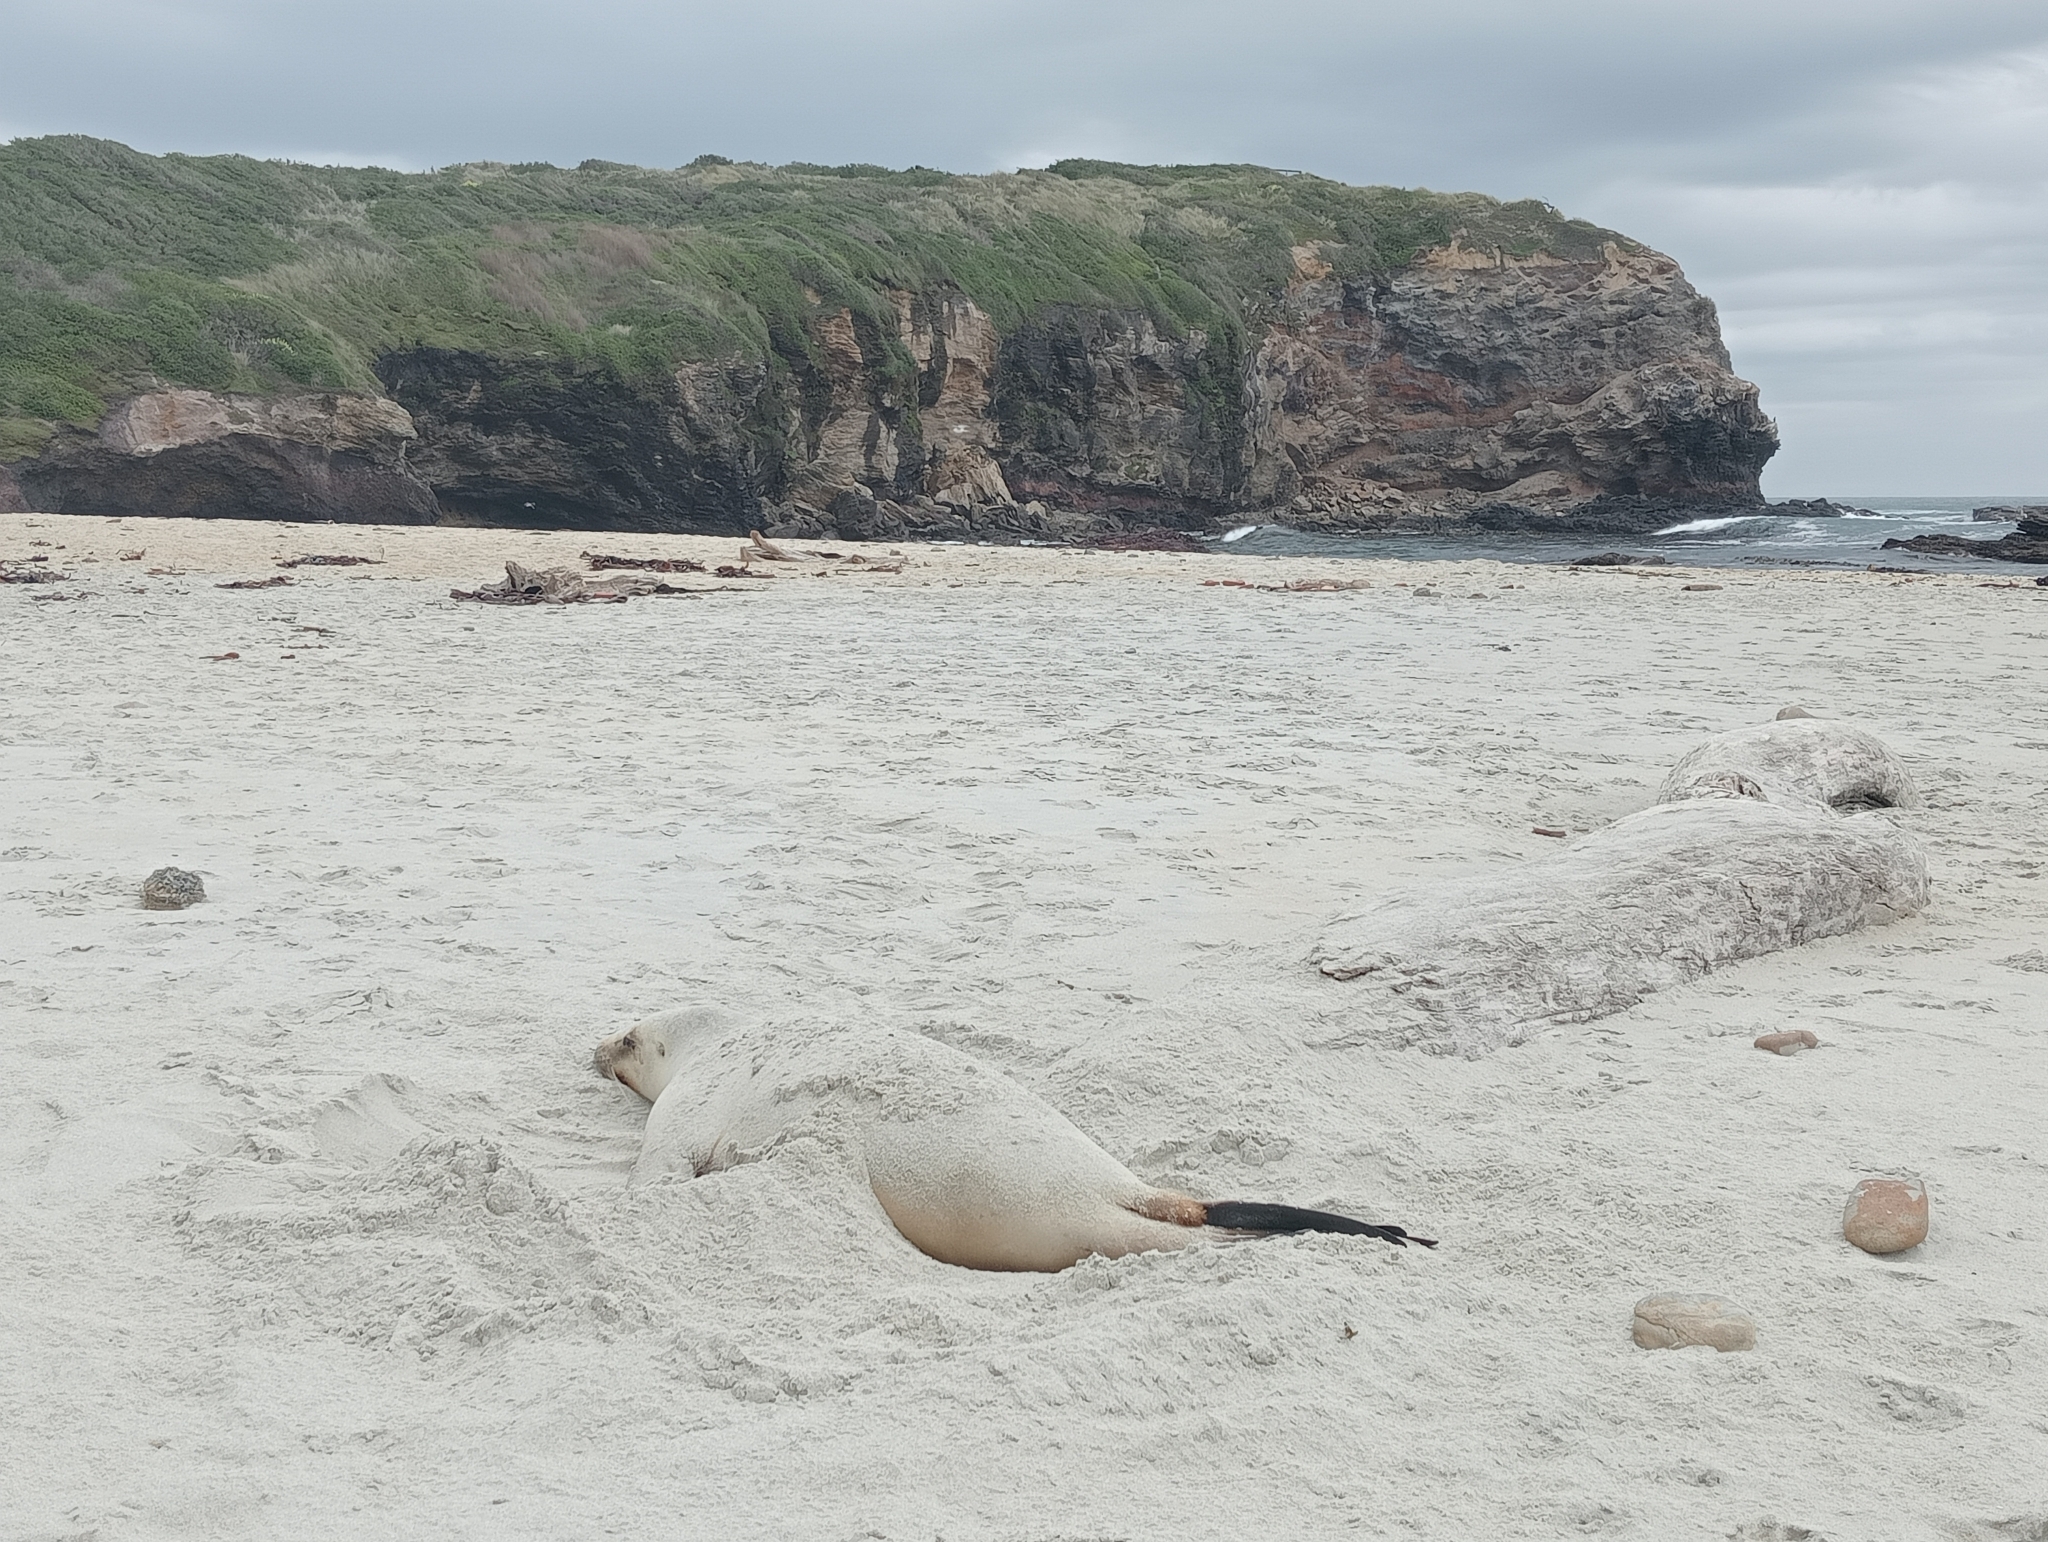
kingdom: Animalia
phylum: Chordata
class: Mammalia
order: Carnivora
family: Otariidae
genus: Phocarctos
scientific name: Phocarctos hookeri
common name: New zealand sea lion
